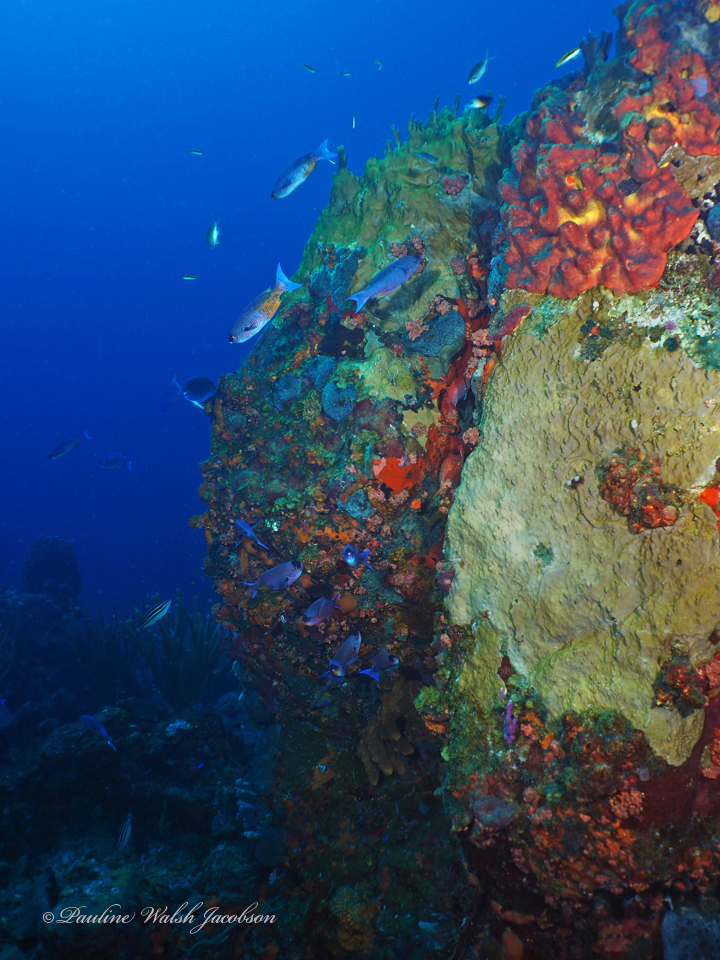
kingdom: Animalia
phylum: Chordata
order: Perciformes
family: Labridae
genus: Bodianus
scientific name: Bodianus
